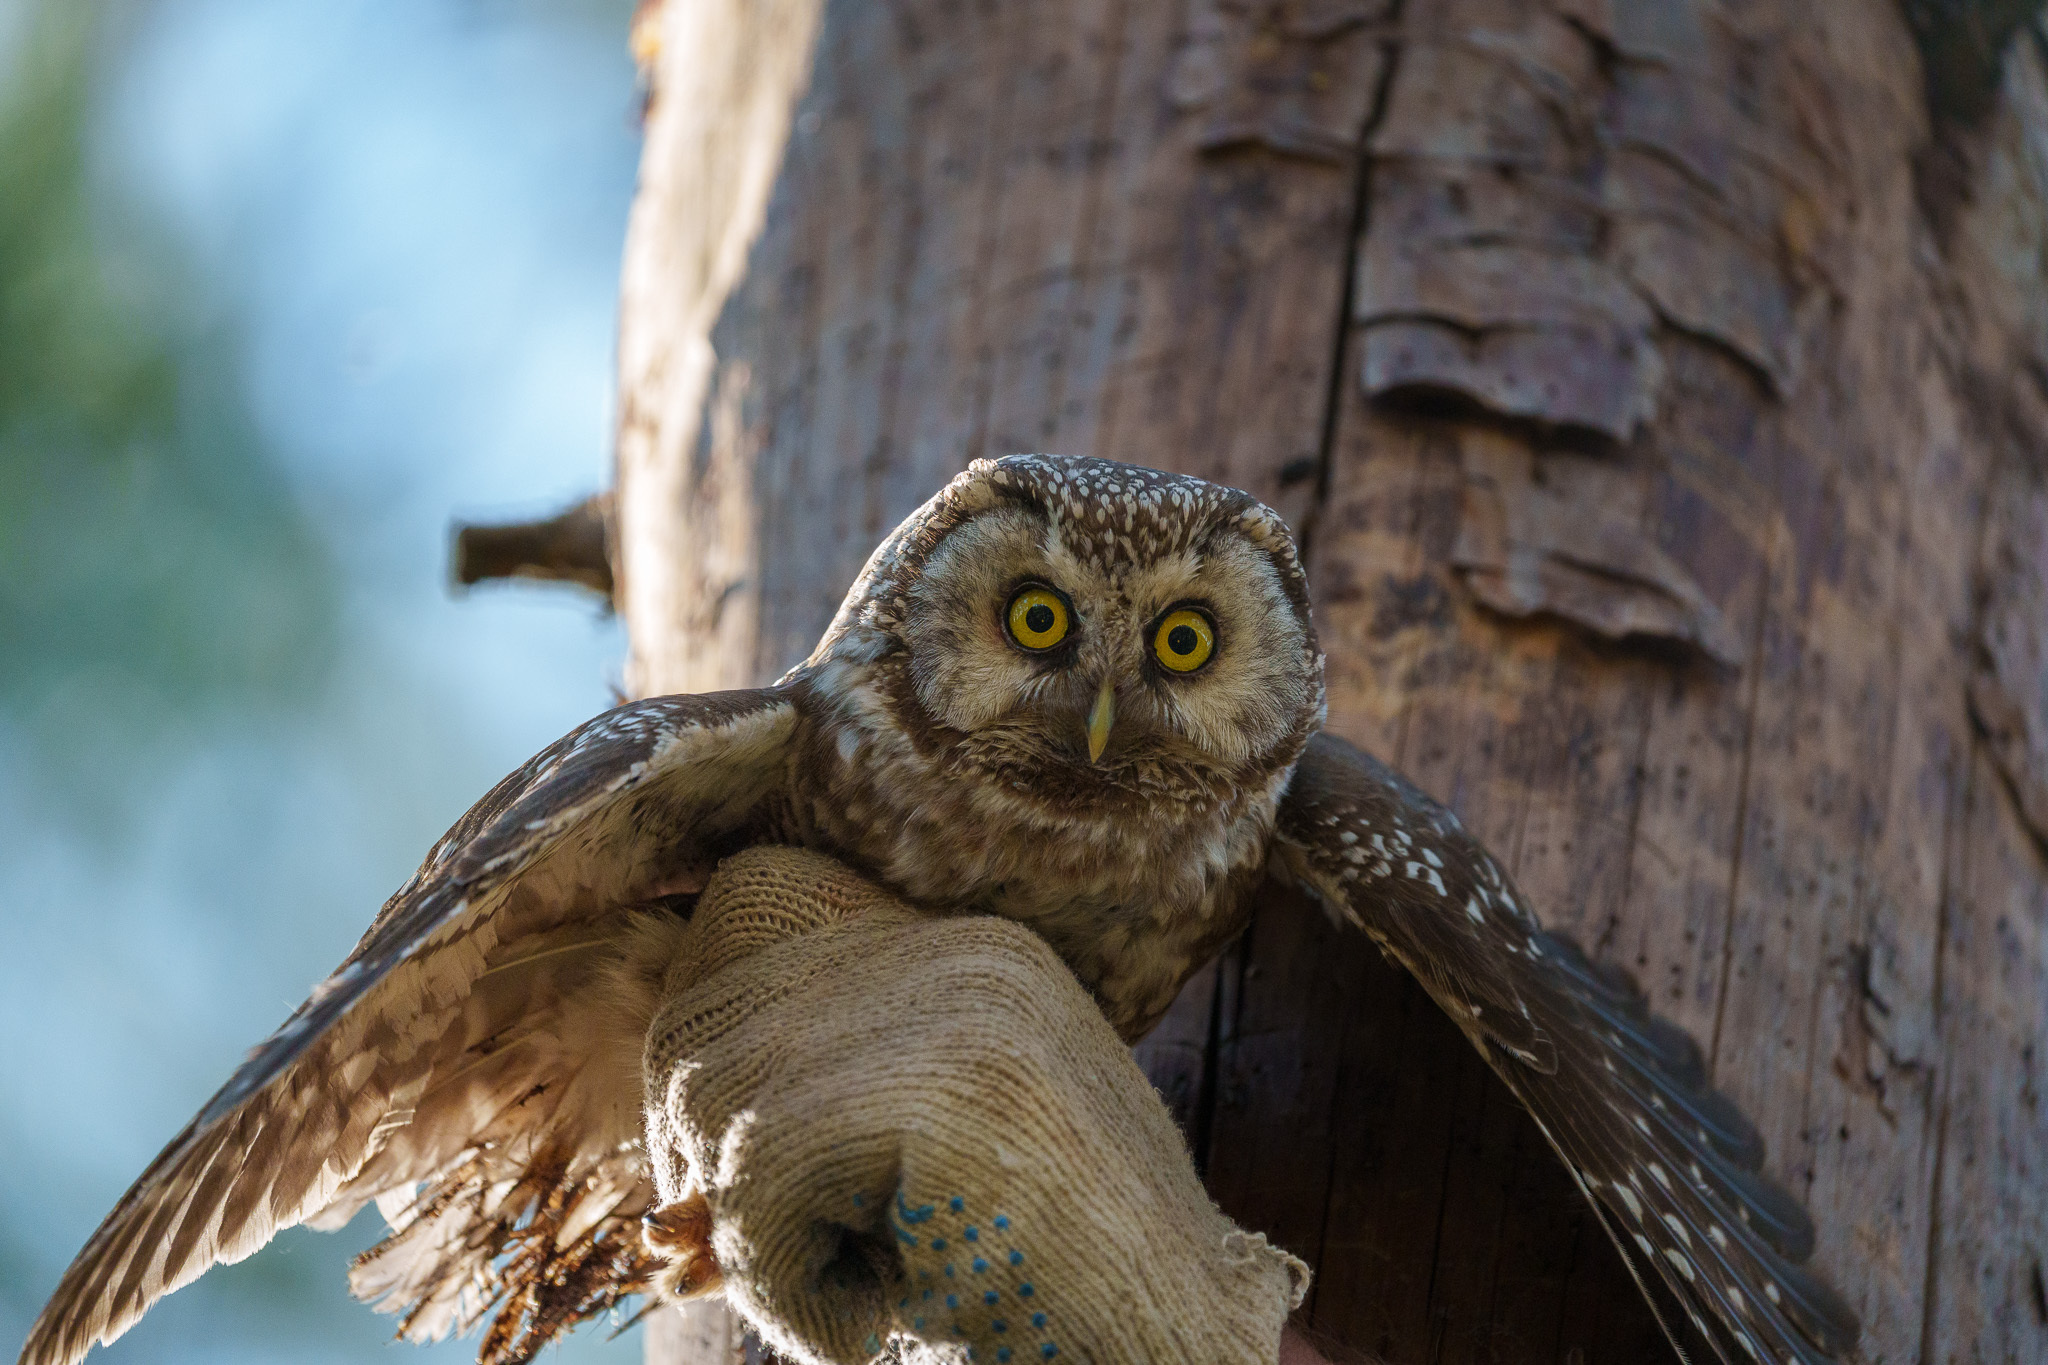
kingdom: Animalia
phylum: Chordata
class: Aves
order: Strigiformes
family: Strigidae
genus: Aegolius
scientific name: Aegolius funereus
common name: Boreal owl
